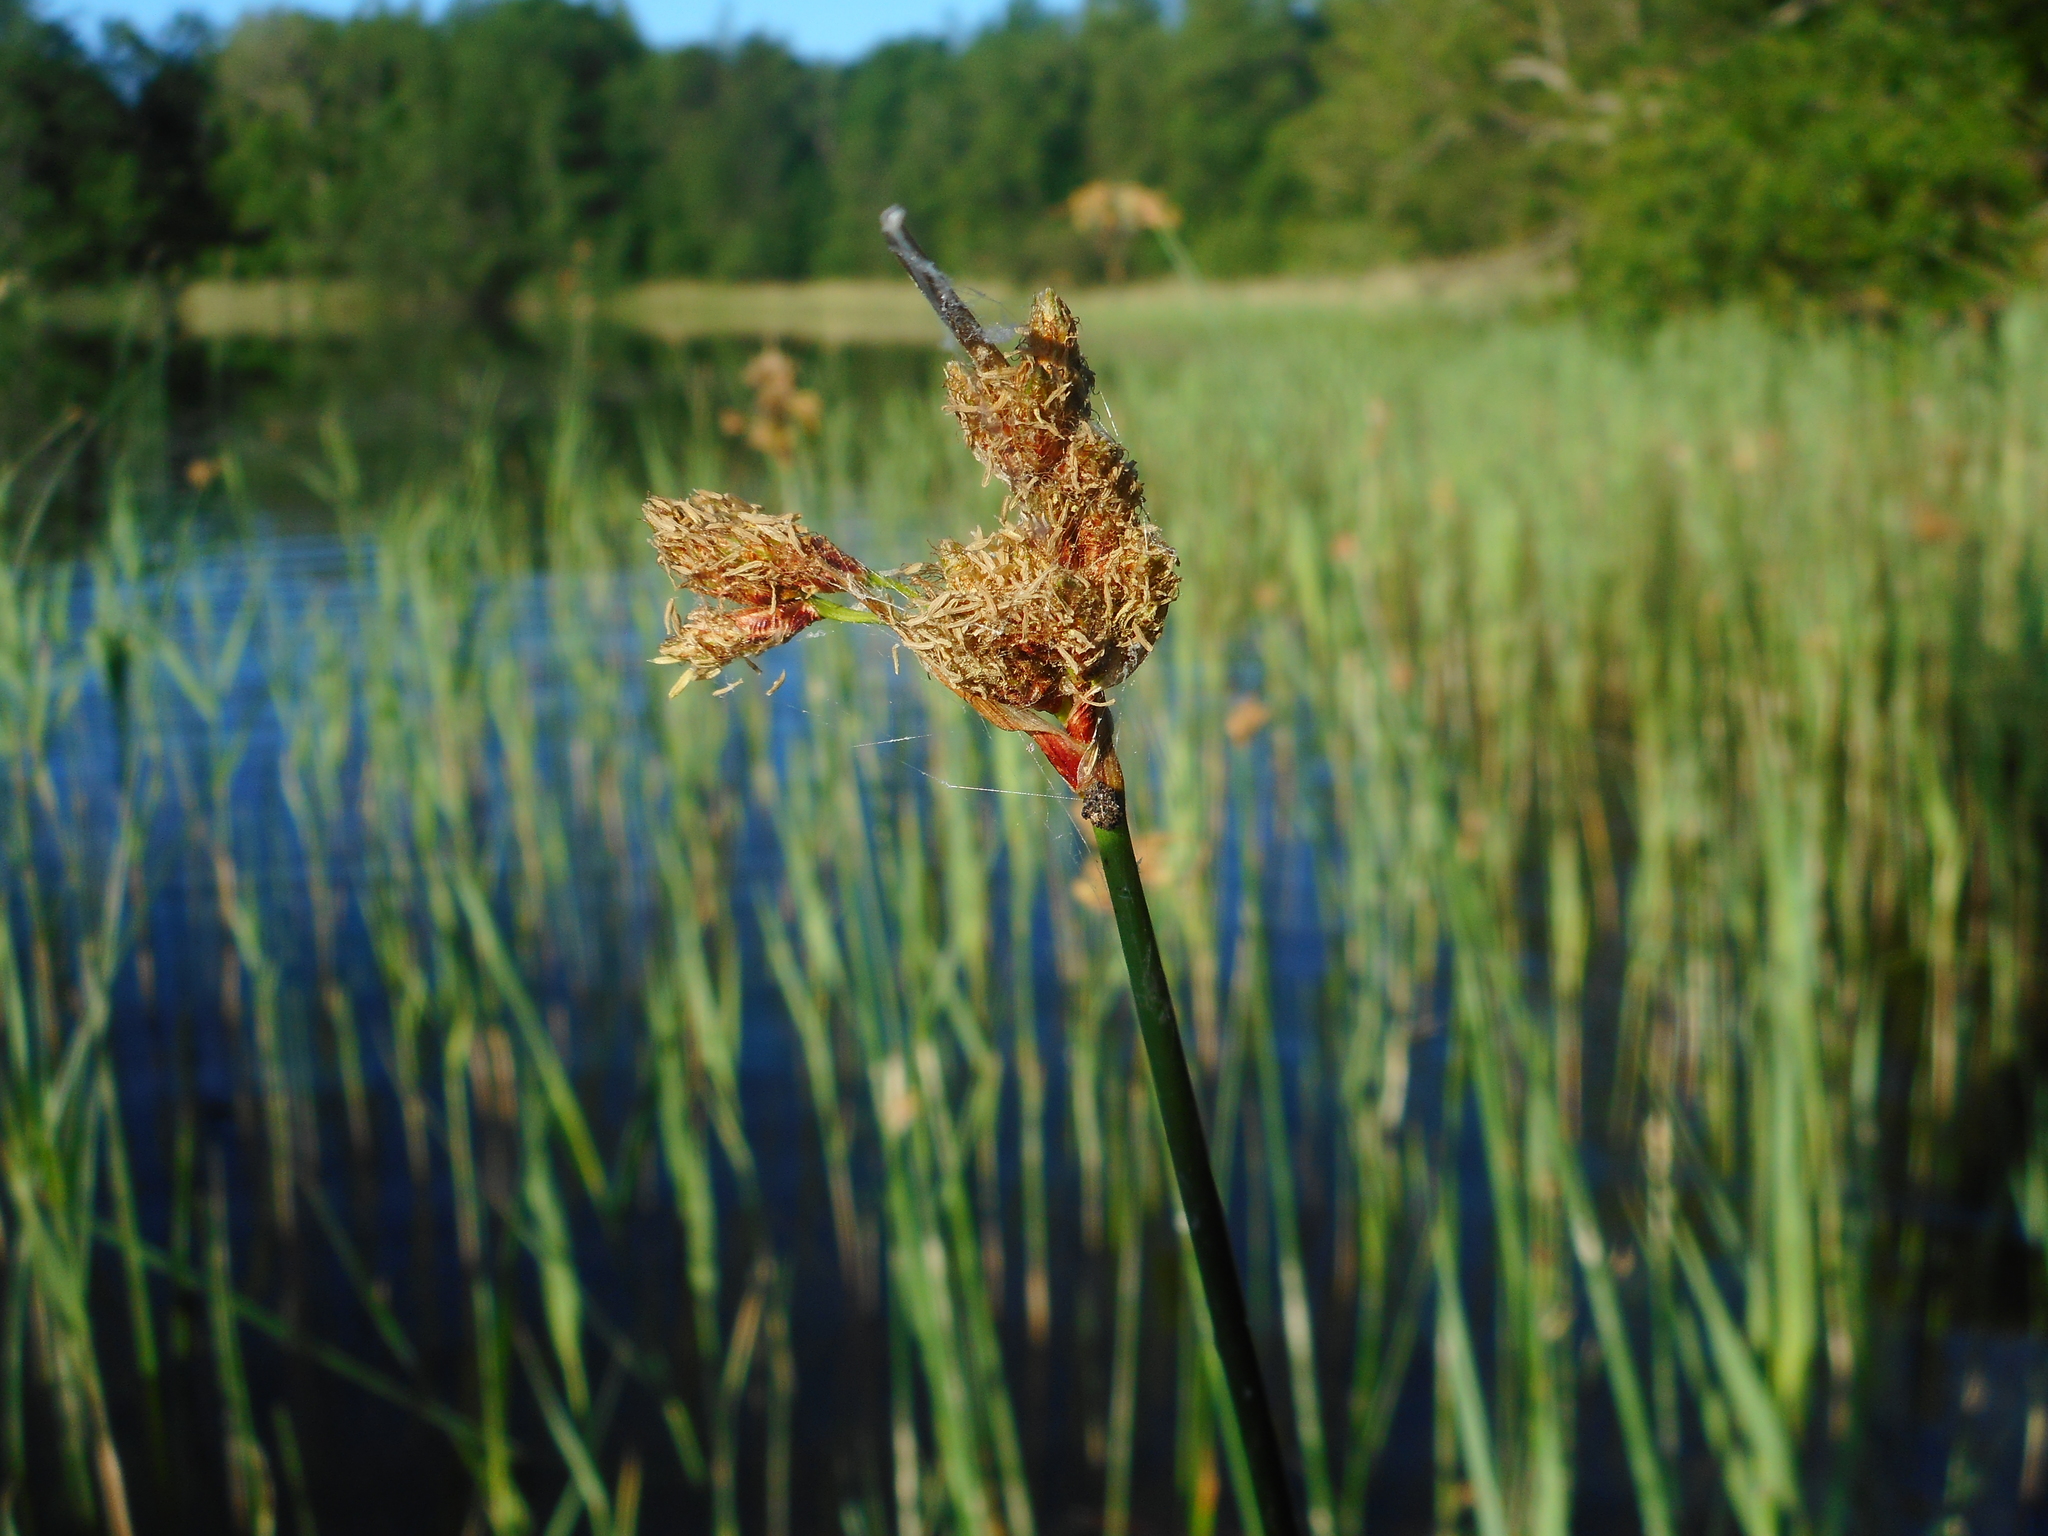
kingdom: Plantae
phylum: Tracheophyta
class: Liliopsida
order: Poales
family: Cyperaceae
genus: Schoenoplectus
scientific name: Schoenoplectus lacustris
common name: Common club-rush
